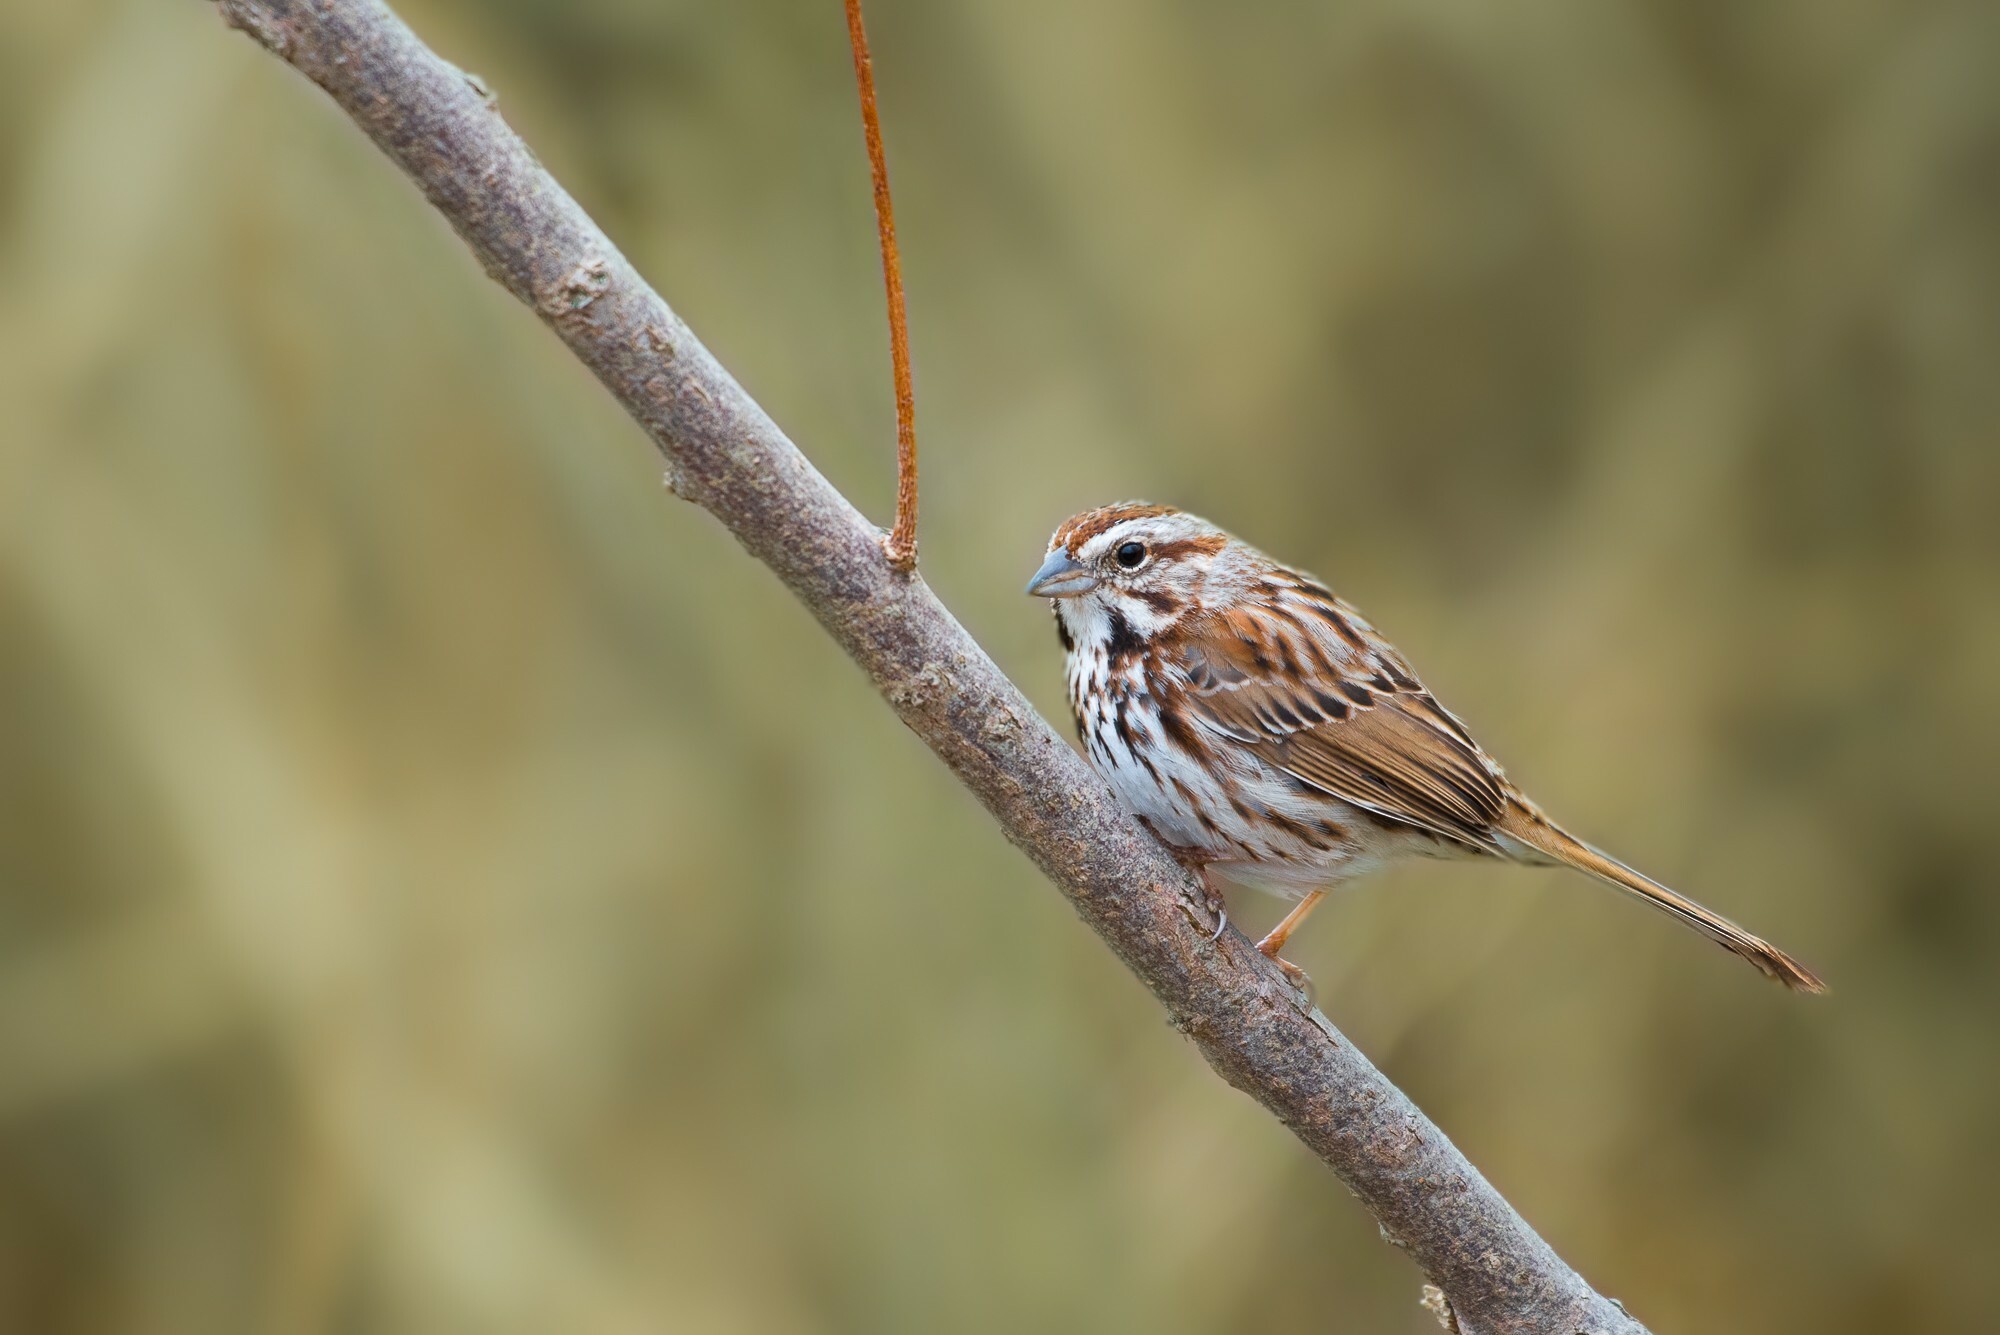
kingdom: Animalia
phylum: Chordata
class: Aves
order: Passeriformes
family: Passerellidae
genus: Melospiza
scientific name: Melospiza melodia
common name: Song sparrow
